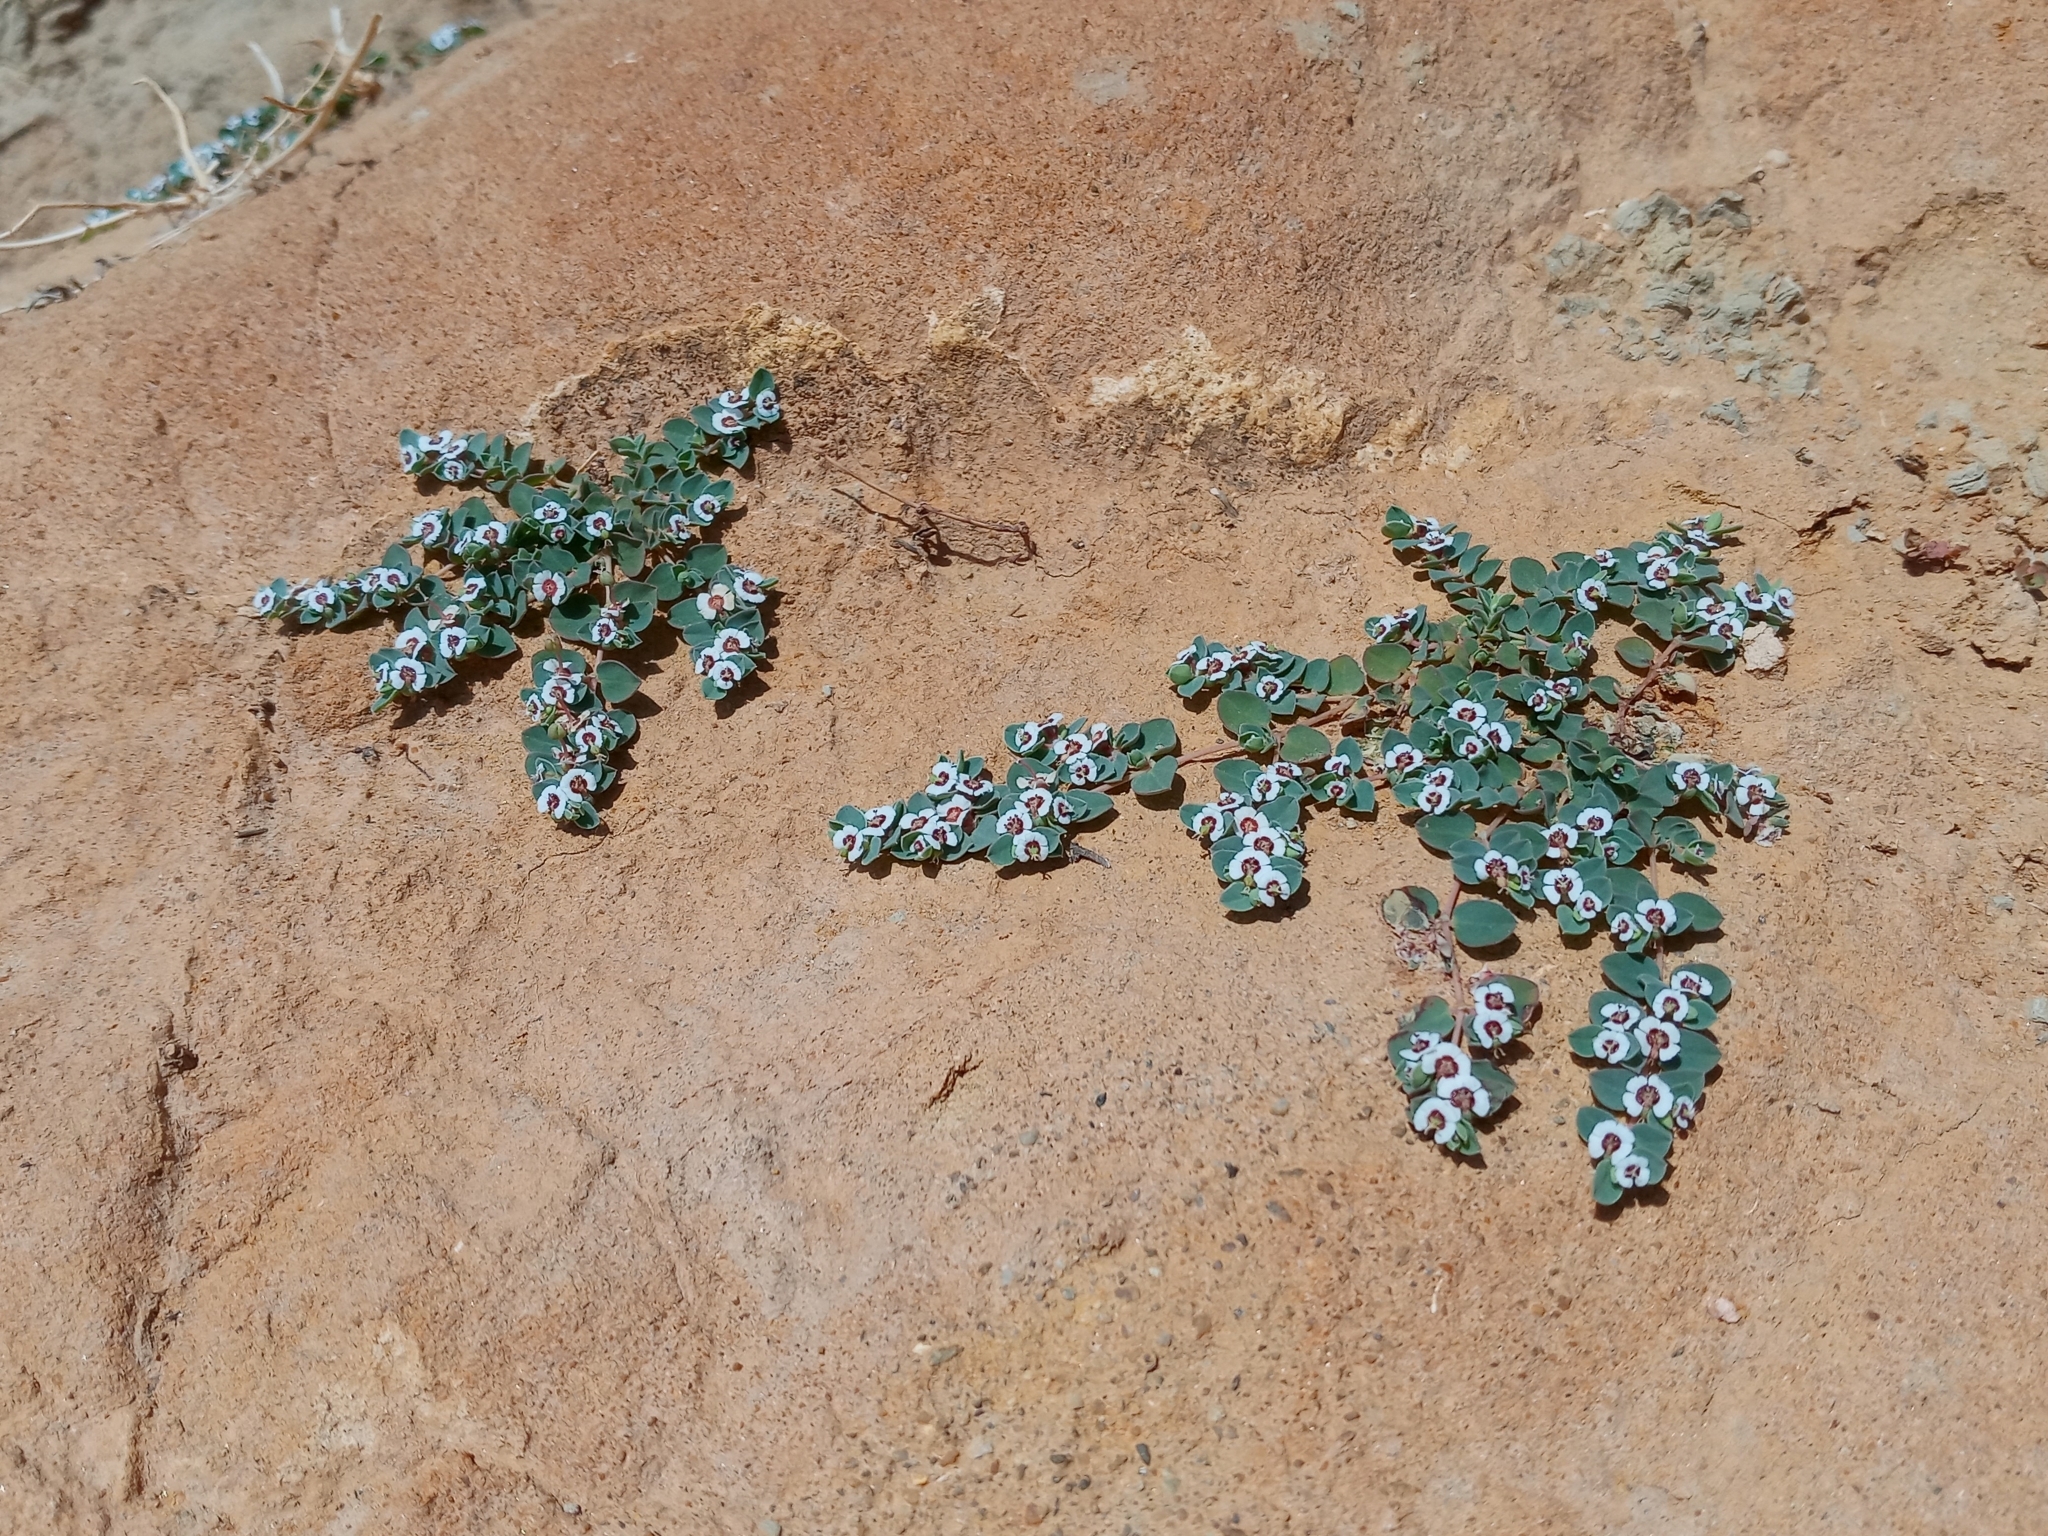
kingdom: Plantae
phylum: Tracheophyta
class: Magnoliopsida
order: Malpighiales
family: Euphorbiaceae
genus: Euphorbia
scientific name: Euphorbia albomarginata
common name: Whitemargin sandmat
